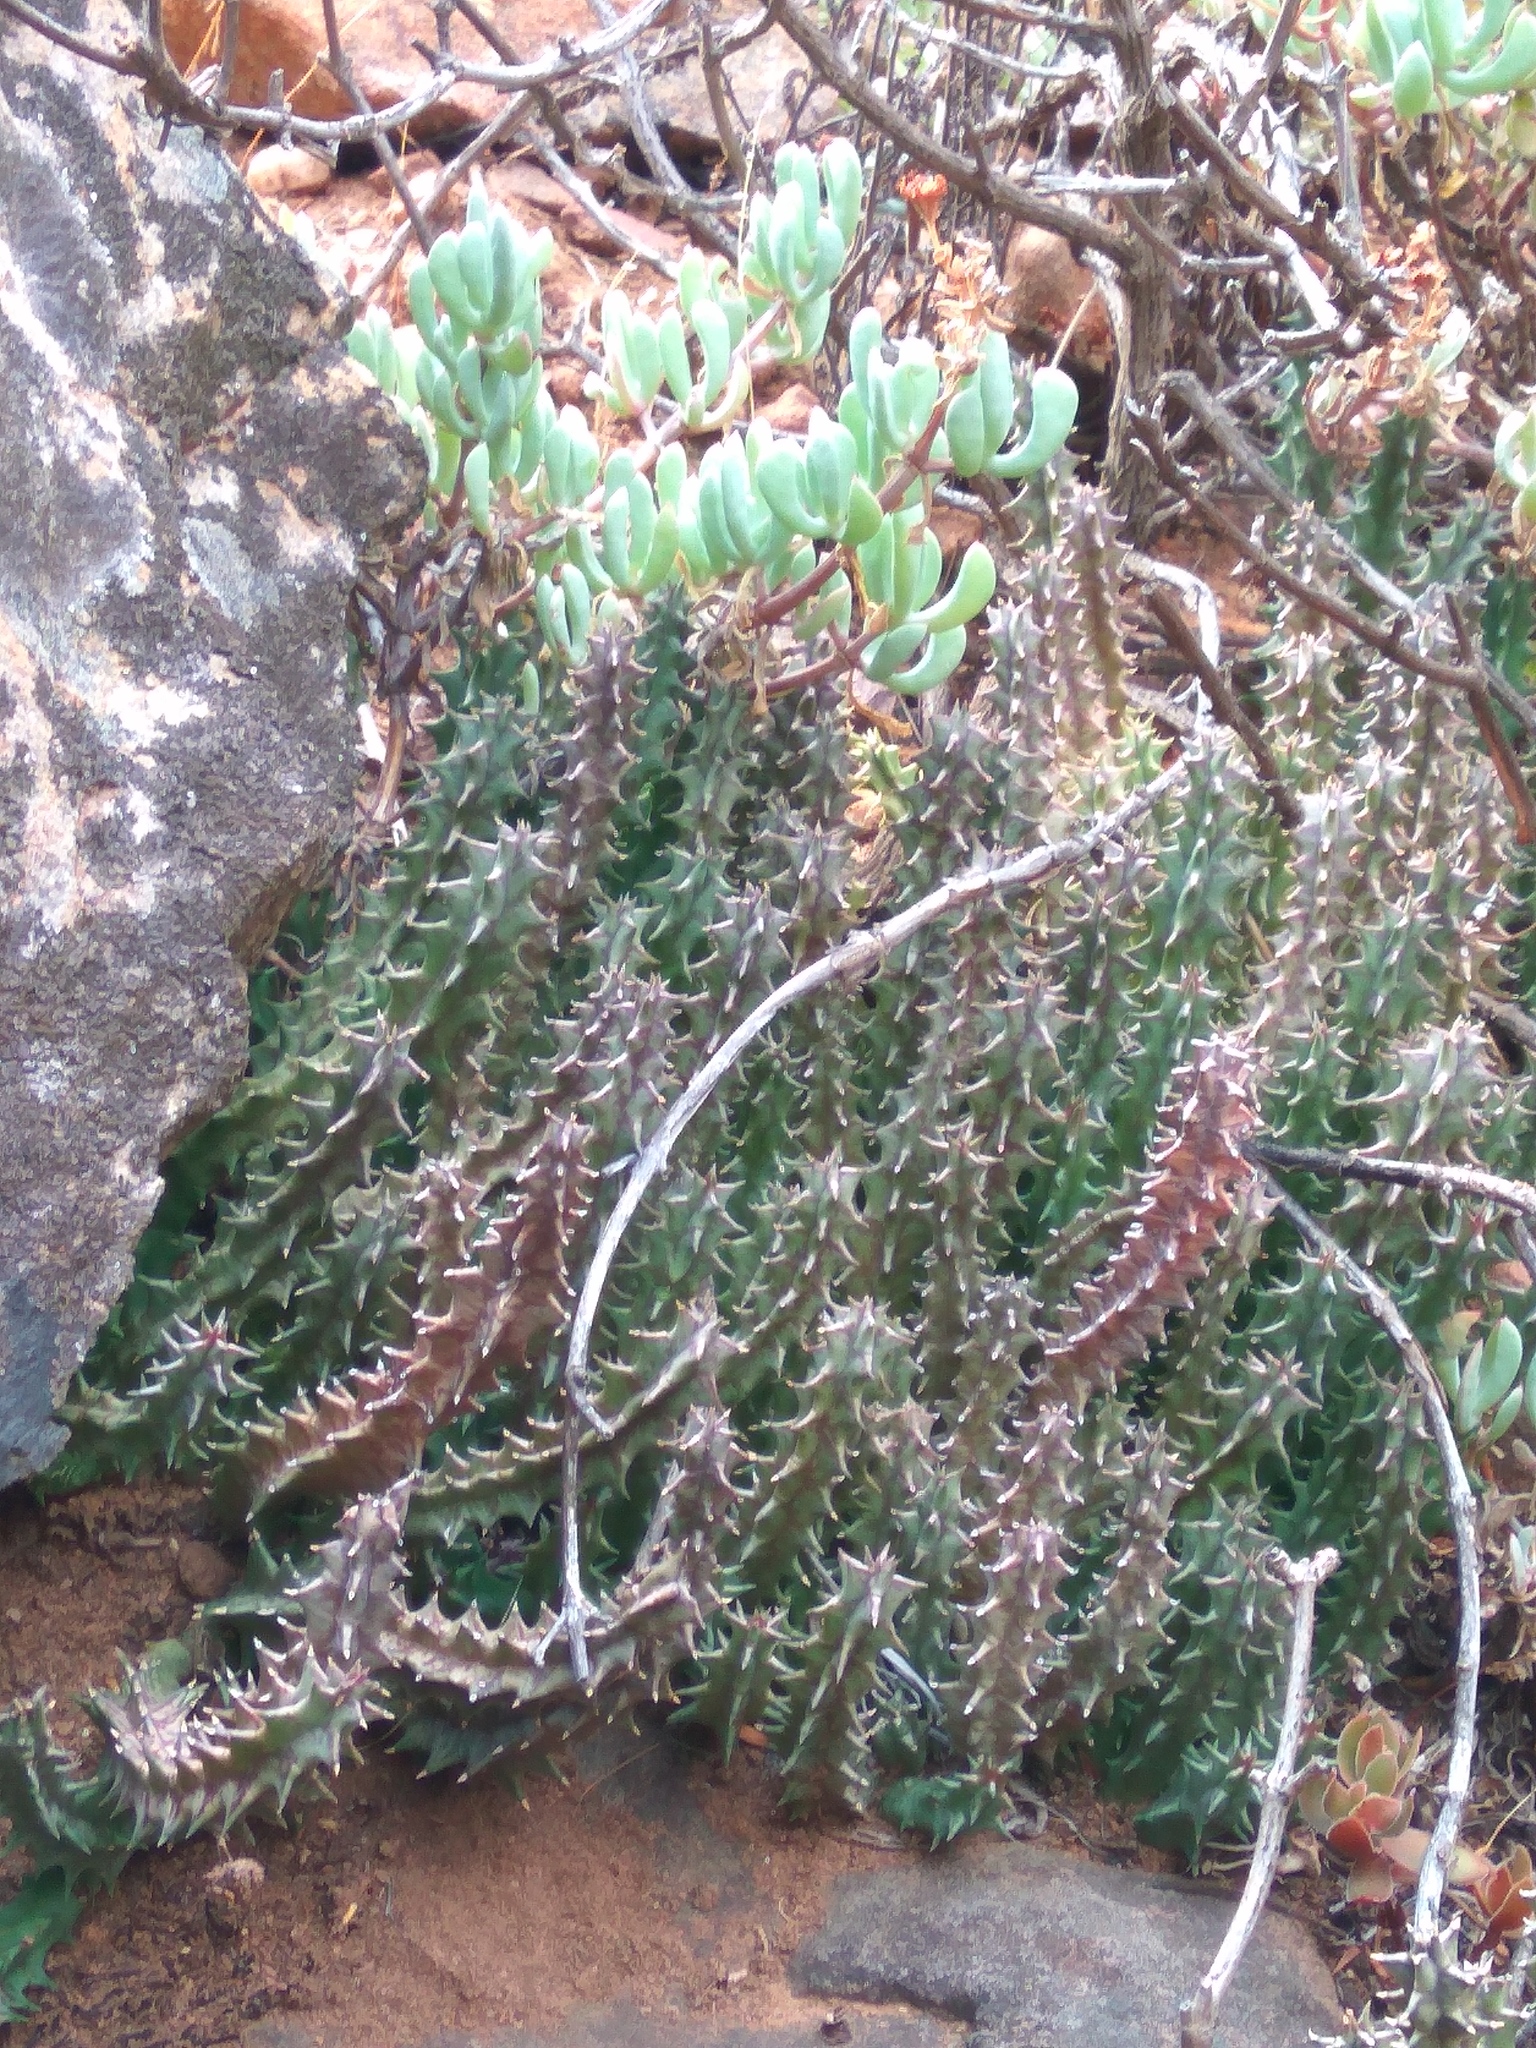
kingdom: Plantae
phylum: Tracheophyta
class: Magnoliopsida
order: Gentianales
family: Apocynaceae
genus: Ceropegia
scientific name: Ceropegia guttata
